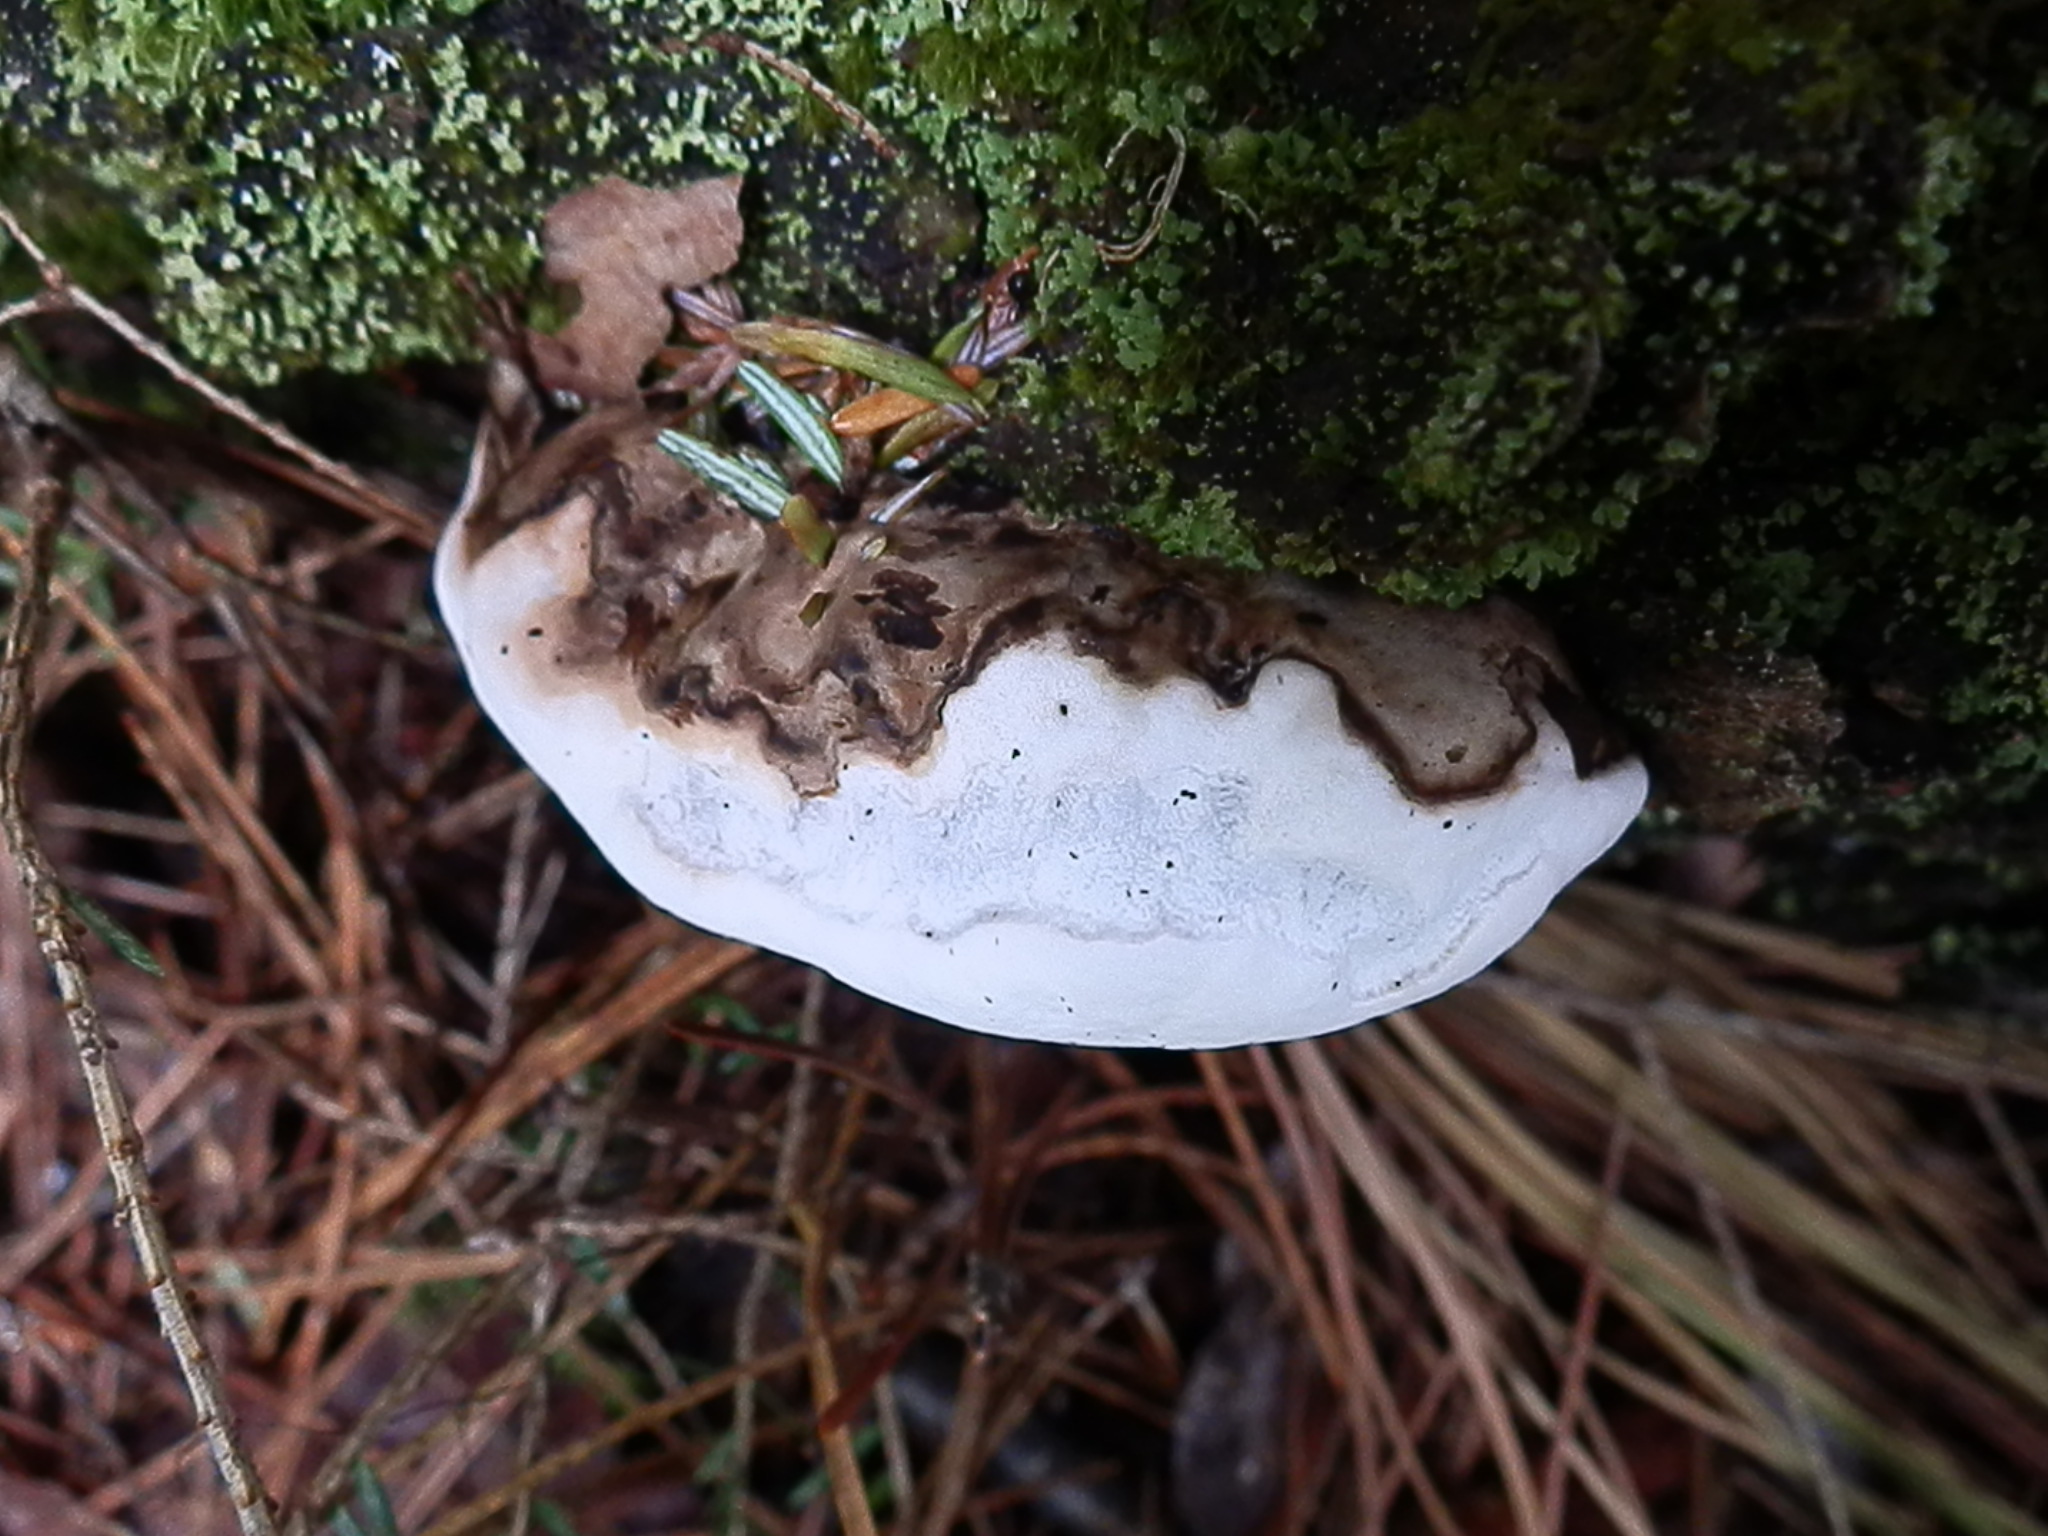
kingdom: Fungi
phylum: Basidiomycota
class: Agaricomycetes
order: Polyporales
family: Polyporaceae
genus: Ganoderma
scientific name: Ganoderma applanatum
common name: Artist's bracket
